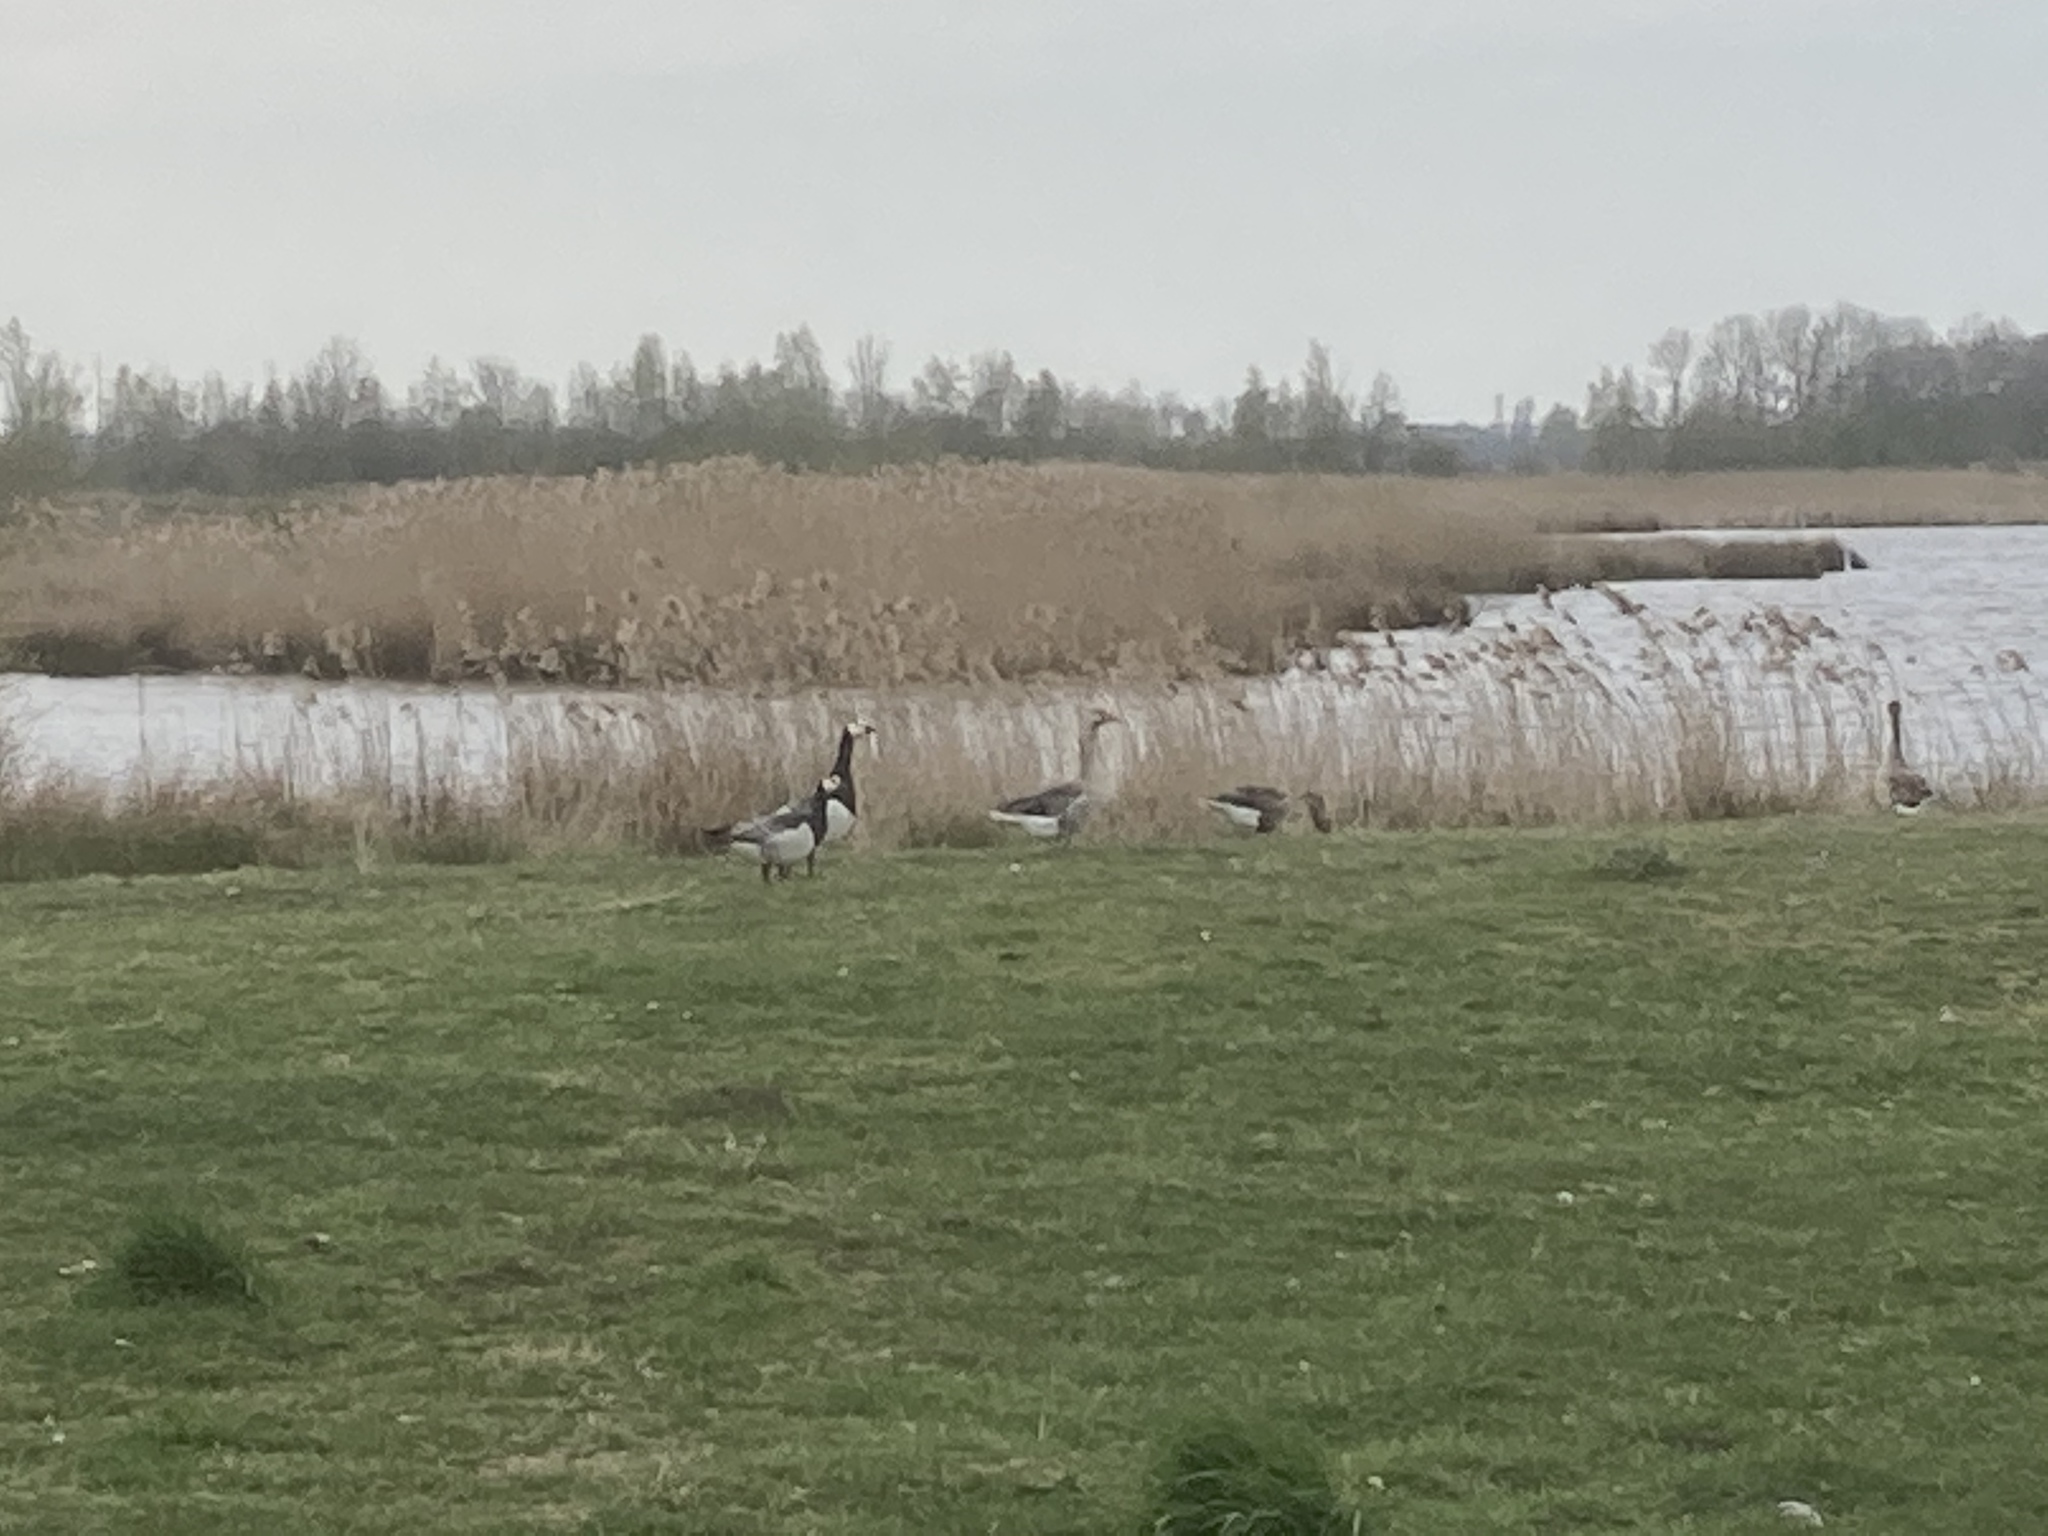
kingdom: Animalia
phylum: Chordata
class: Aves
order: Anseriformes
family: Anatidae
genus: Branta
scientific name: Branta leucopsis
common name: Barnacle goose
